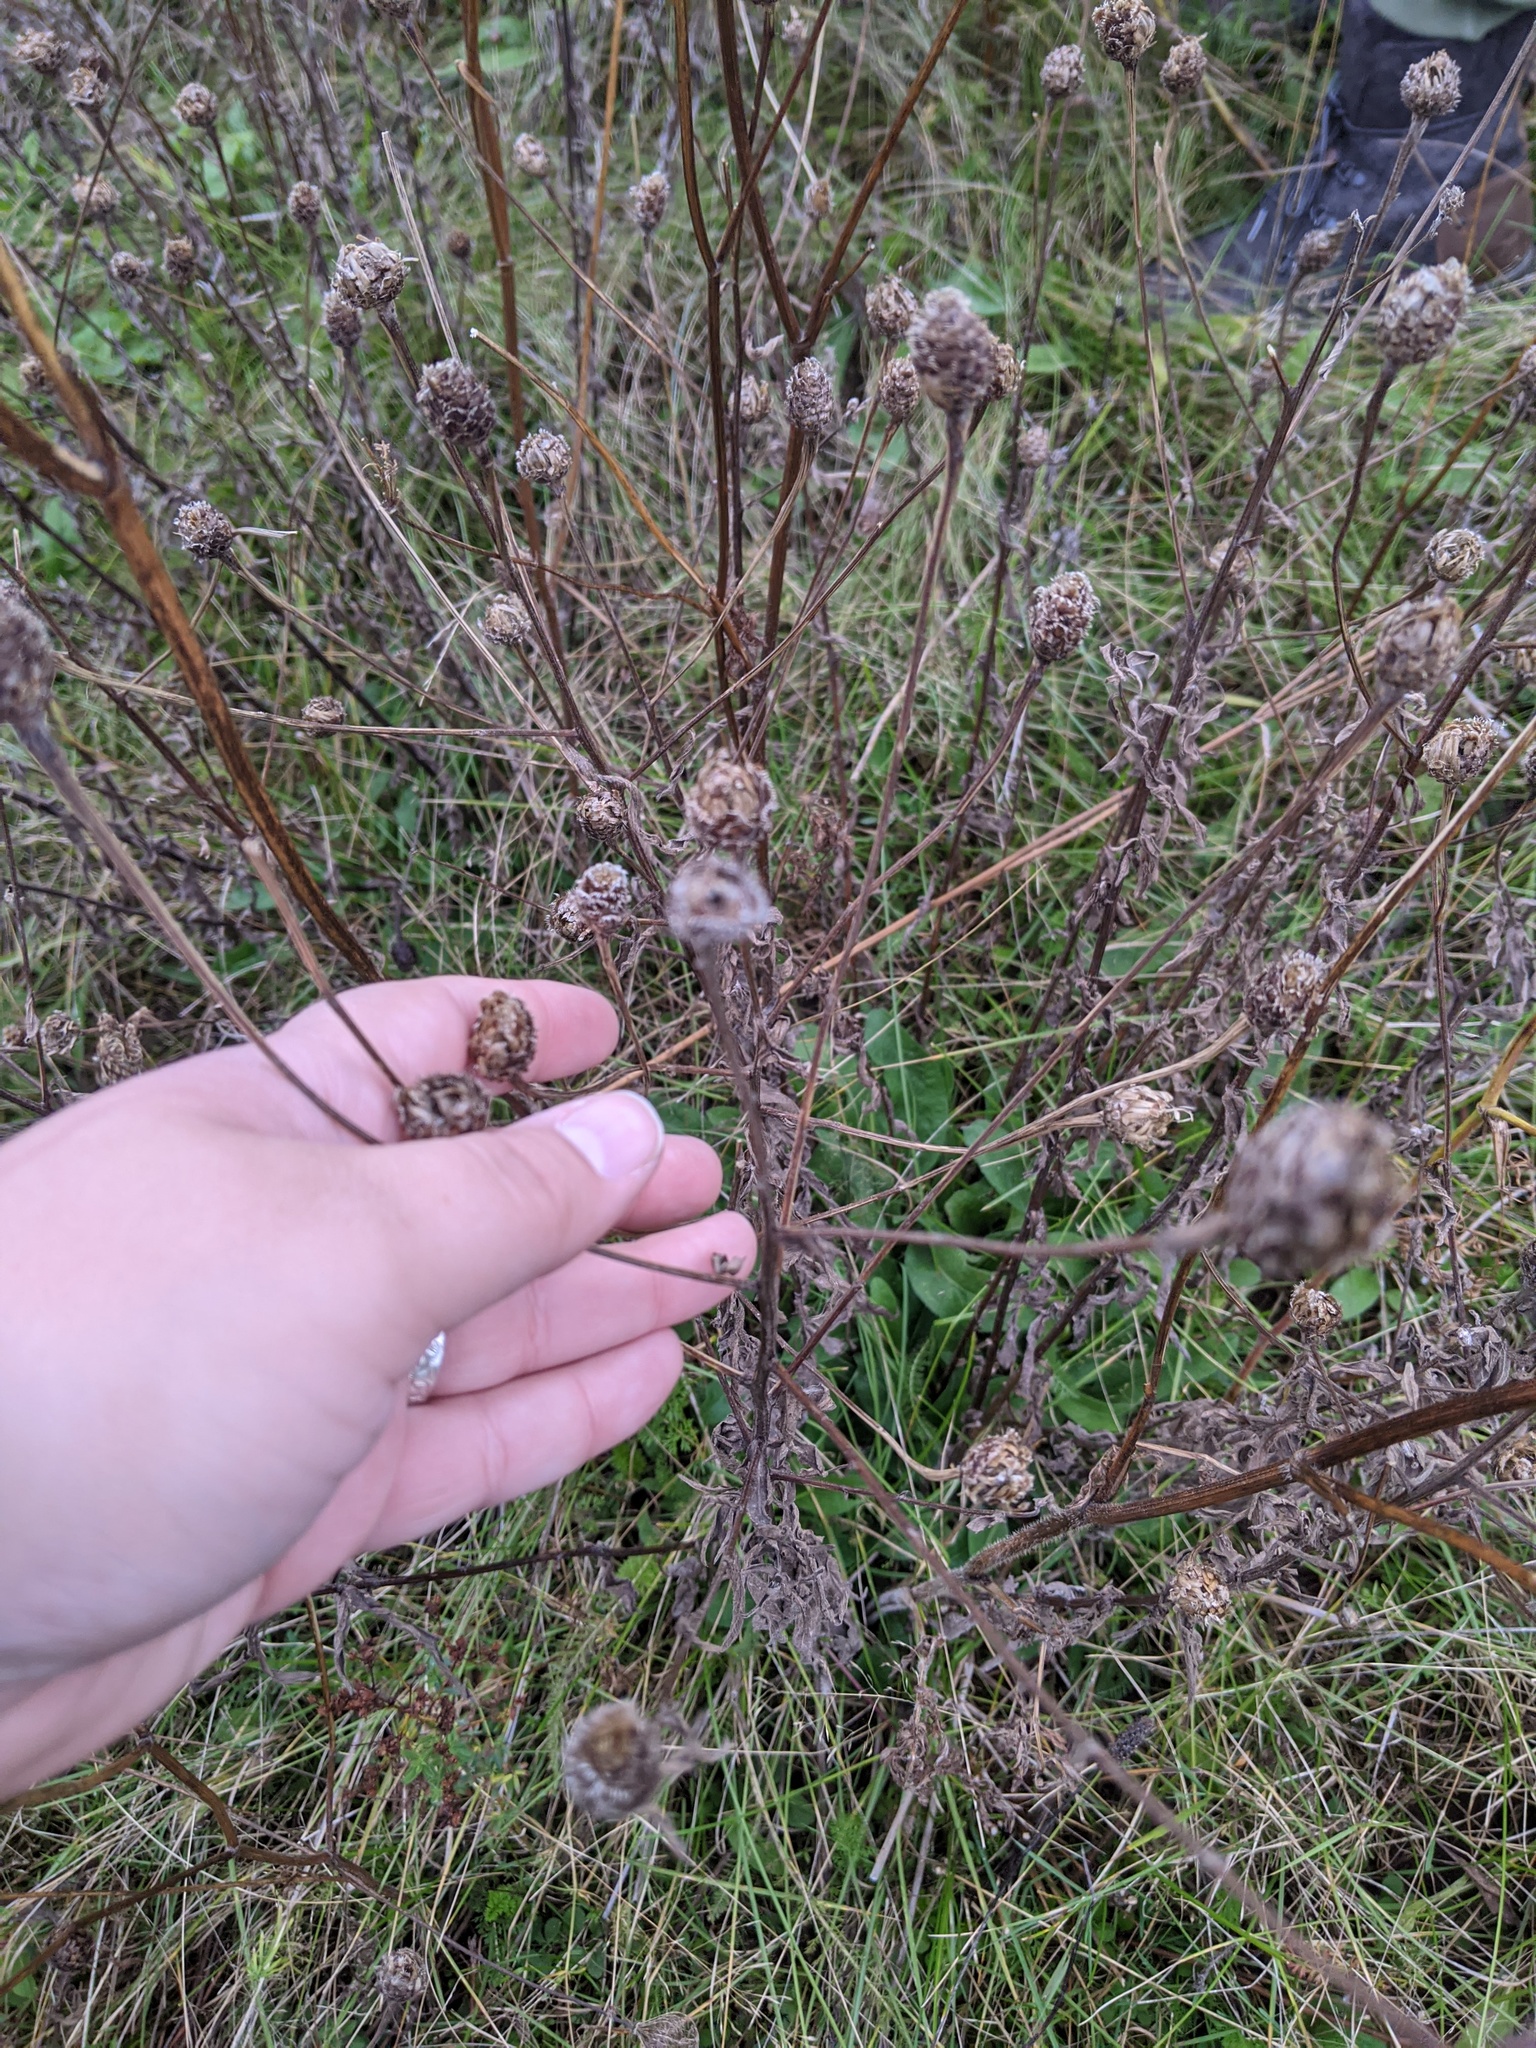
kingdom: Plantae
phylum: Tracheophyta
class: Magnoliopsida
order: Asterales
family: Asteraceae
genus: Centaurea
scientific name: Centaurea nigra
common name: Lesser knapweed
